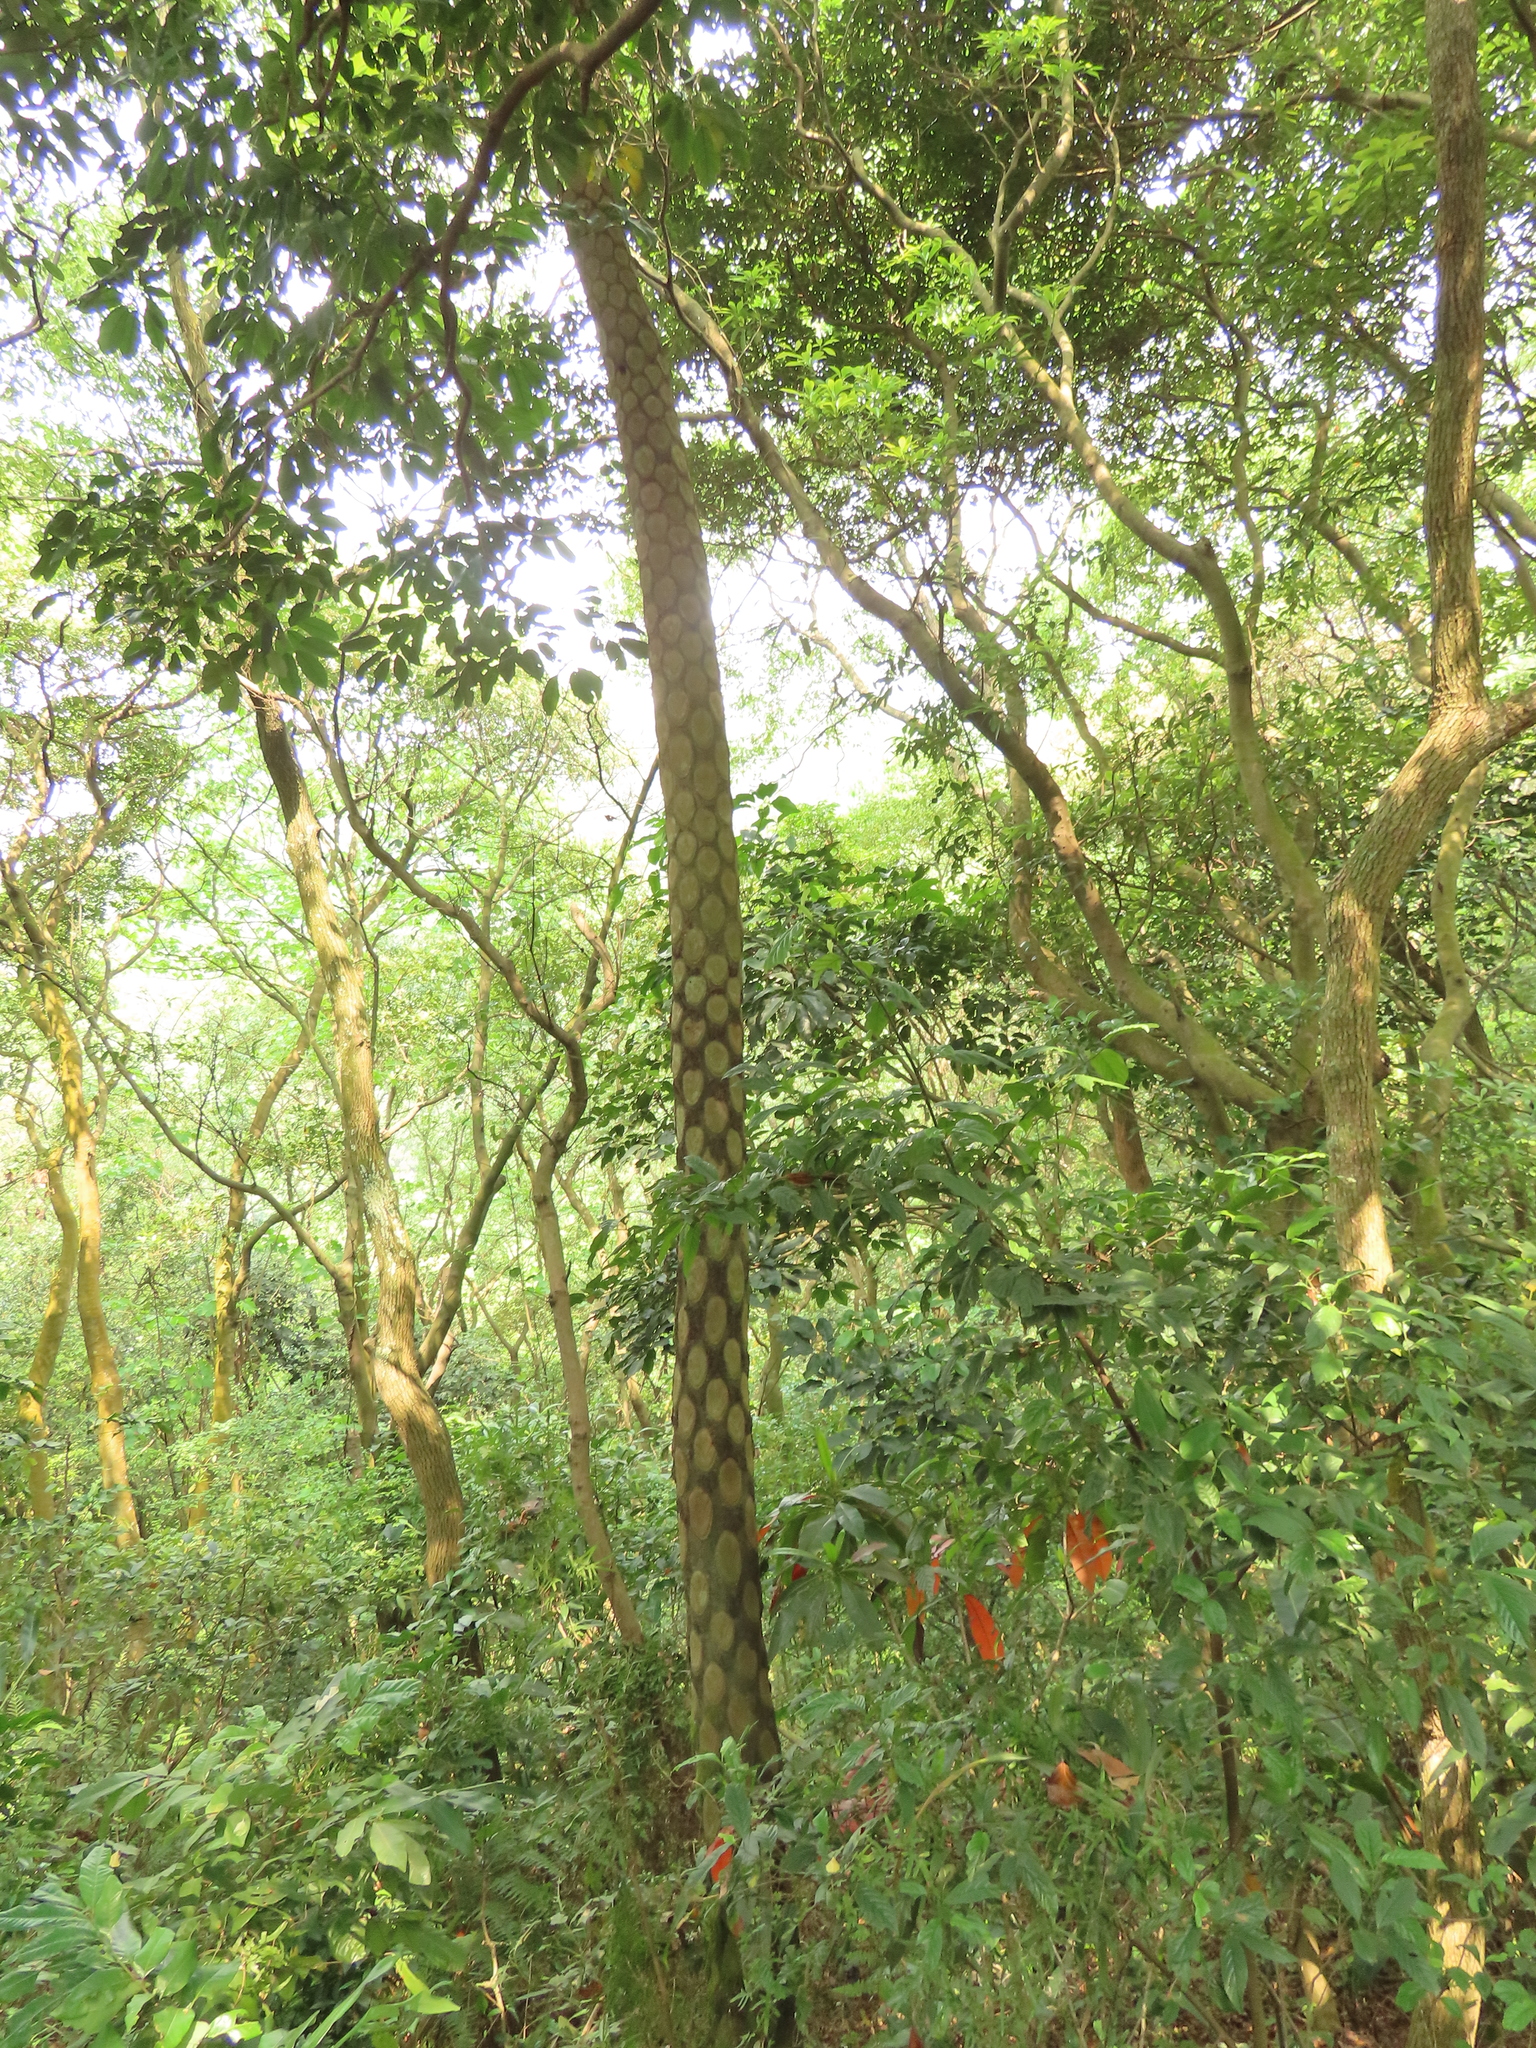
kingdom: Plantae
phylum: Tracheophyta
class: Polypodiopsida
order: Cyatheales
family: Cyatheaceae
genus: Alsophila
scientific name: Alsophila lepifera
